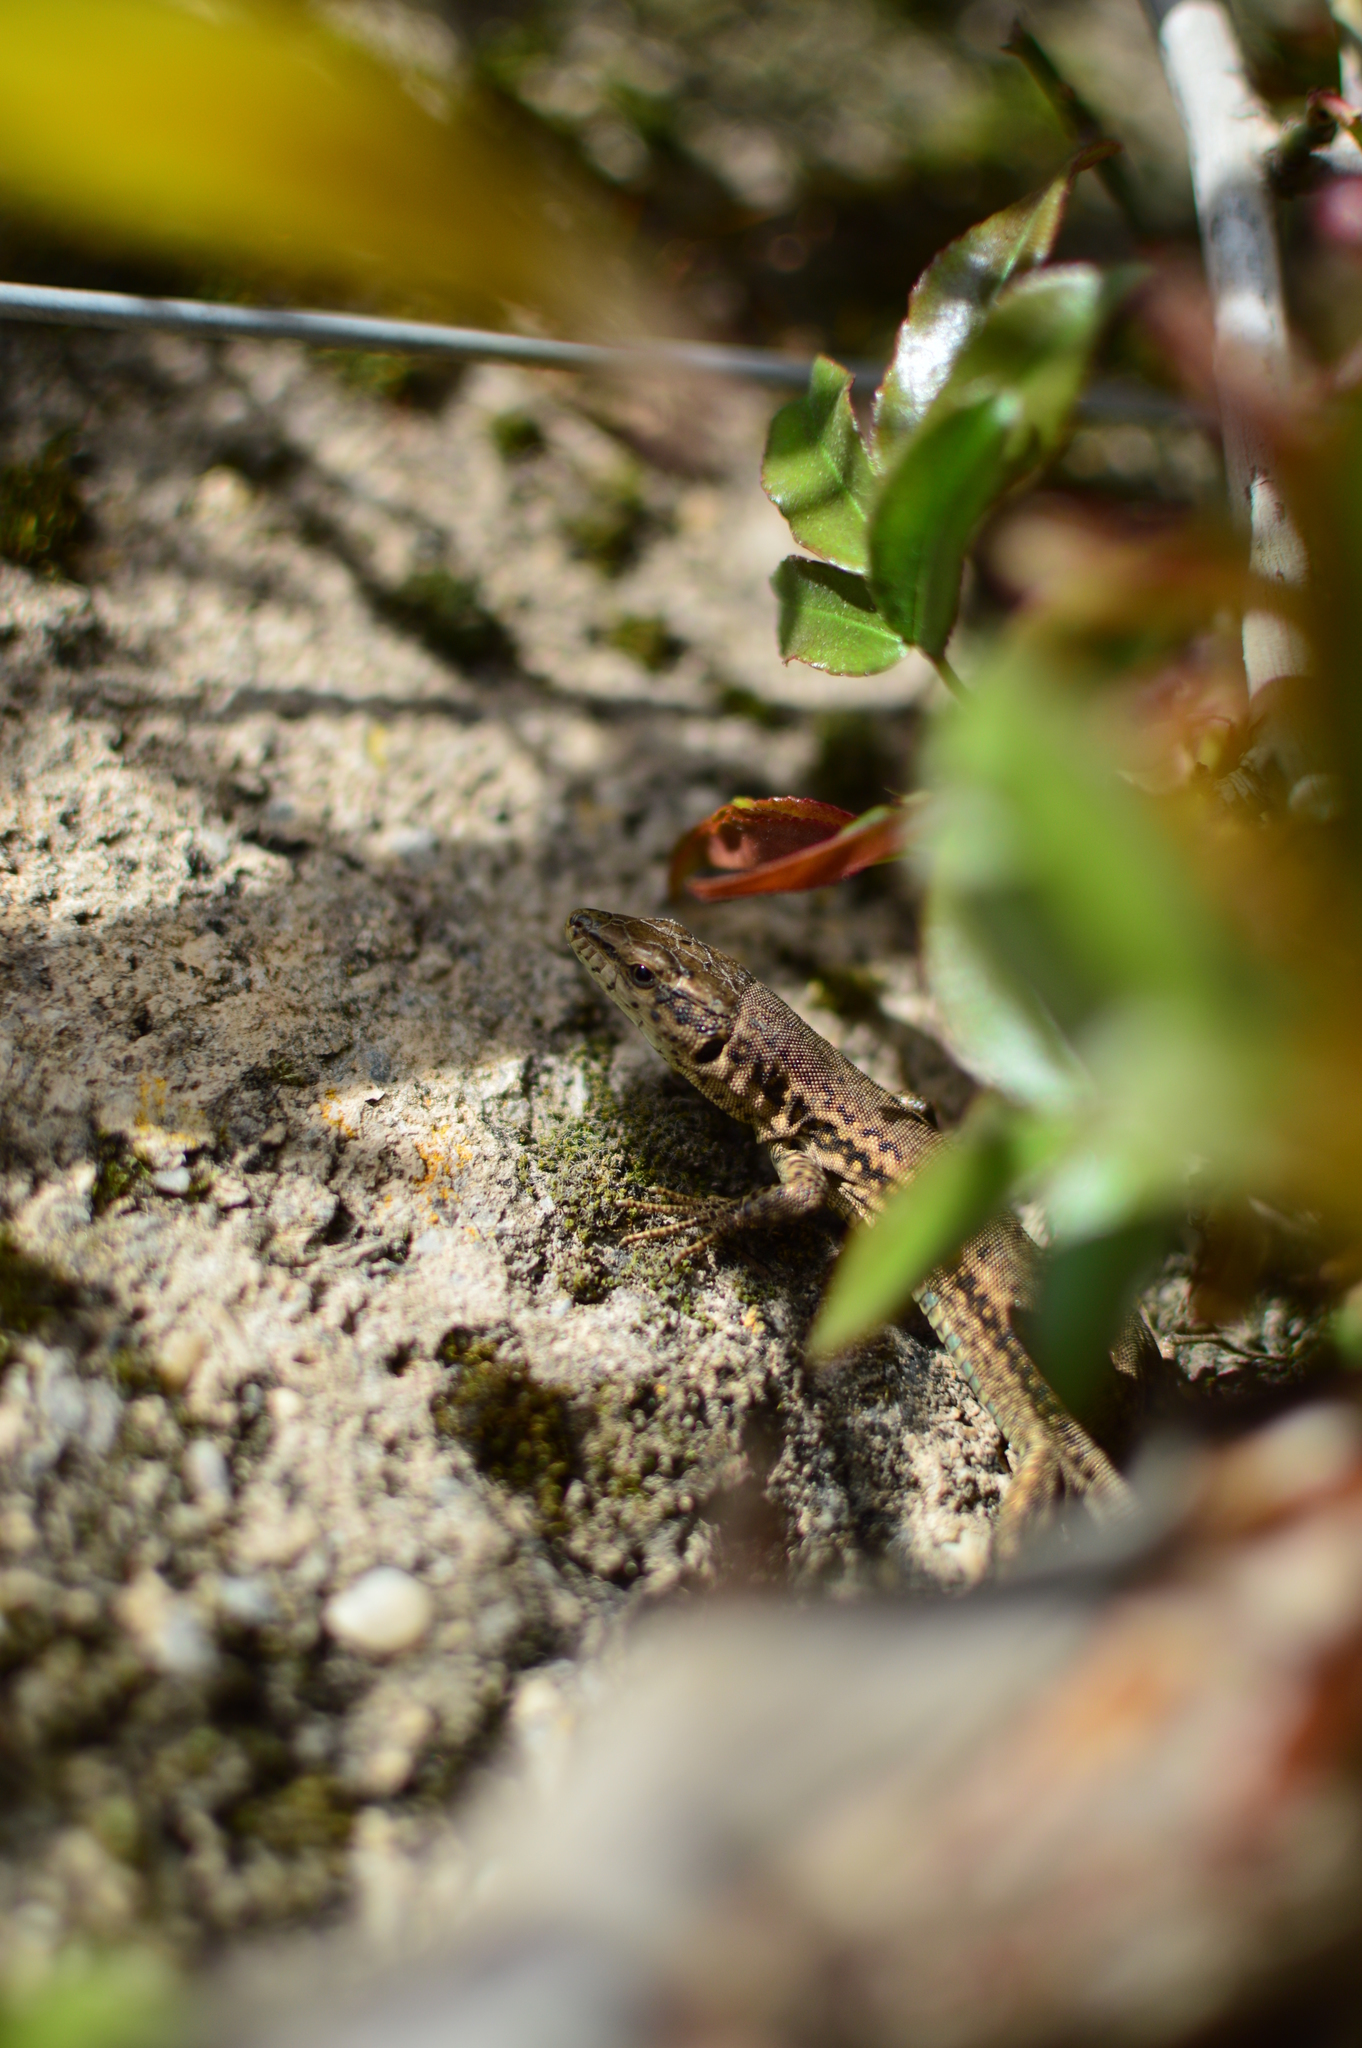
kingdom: Animalia
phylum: Chordata
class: Squamata
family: Lacertidae
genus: Podarcis
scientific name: Podarcis vaucheri
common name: Vaucher's wall lizard
